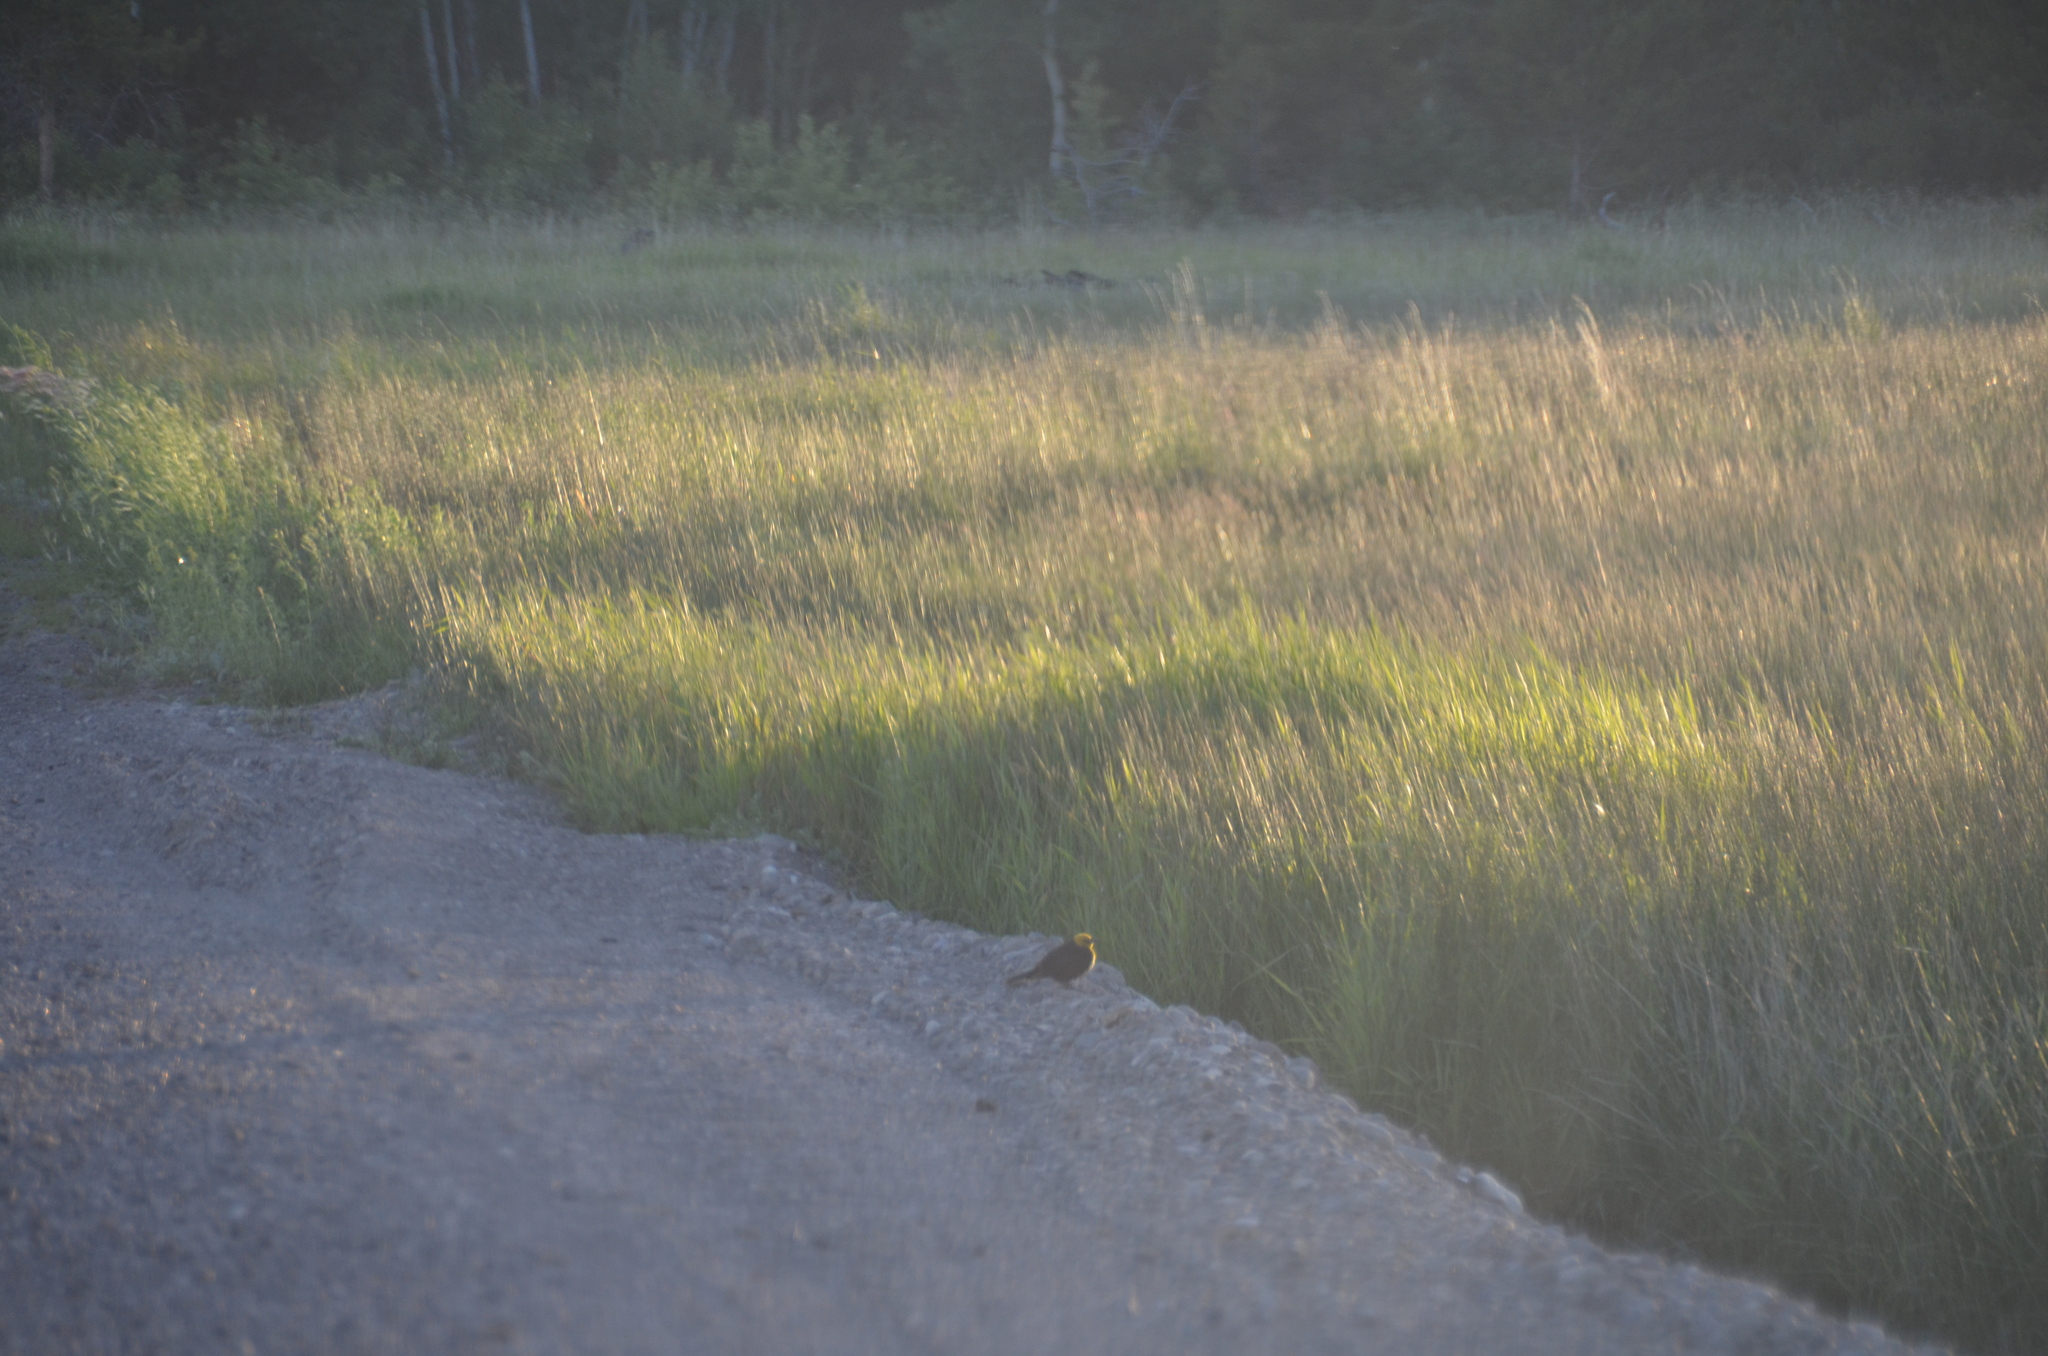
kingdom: Animalia
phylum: Chordata
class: Aves
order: Passeriformes
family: Icteridae
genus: Xanthocephalus
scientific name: Xanthocephalus xanthocephalus
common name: Yellow-headed blackbird
